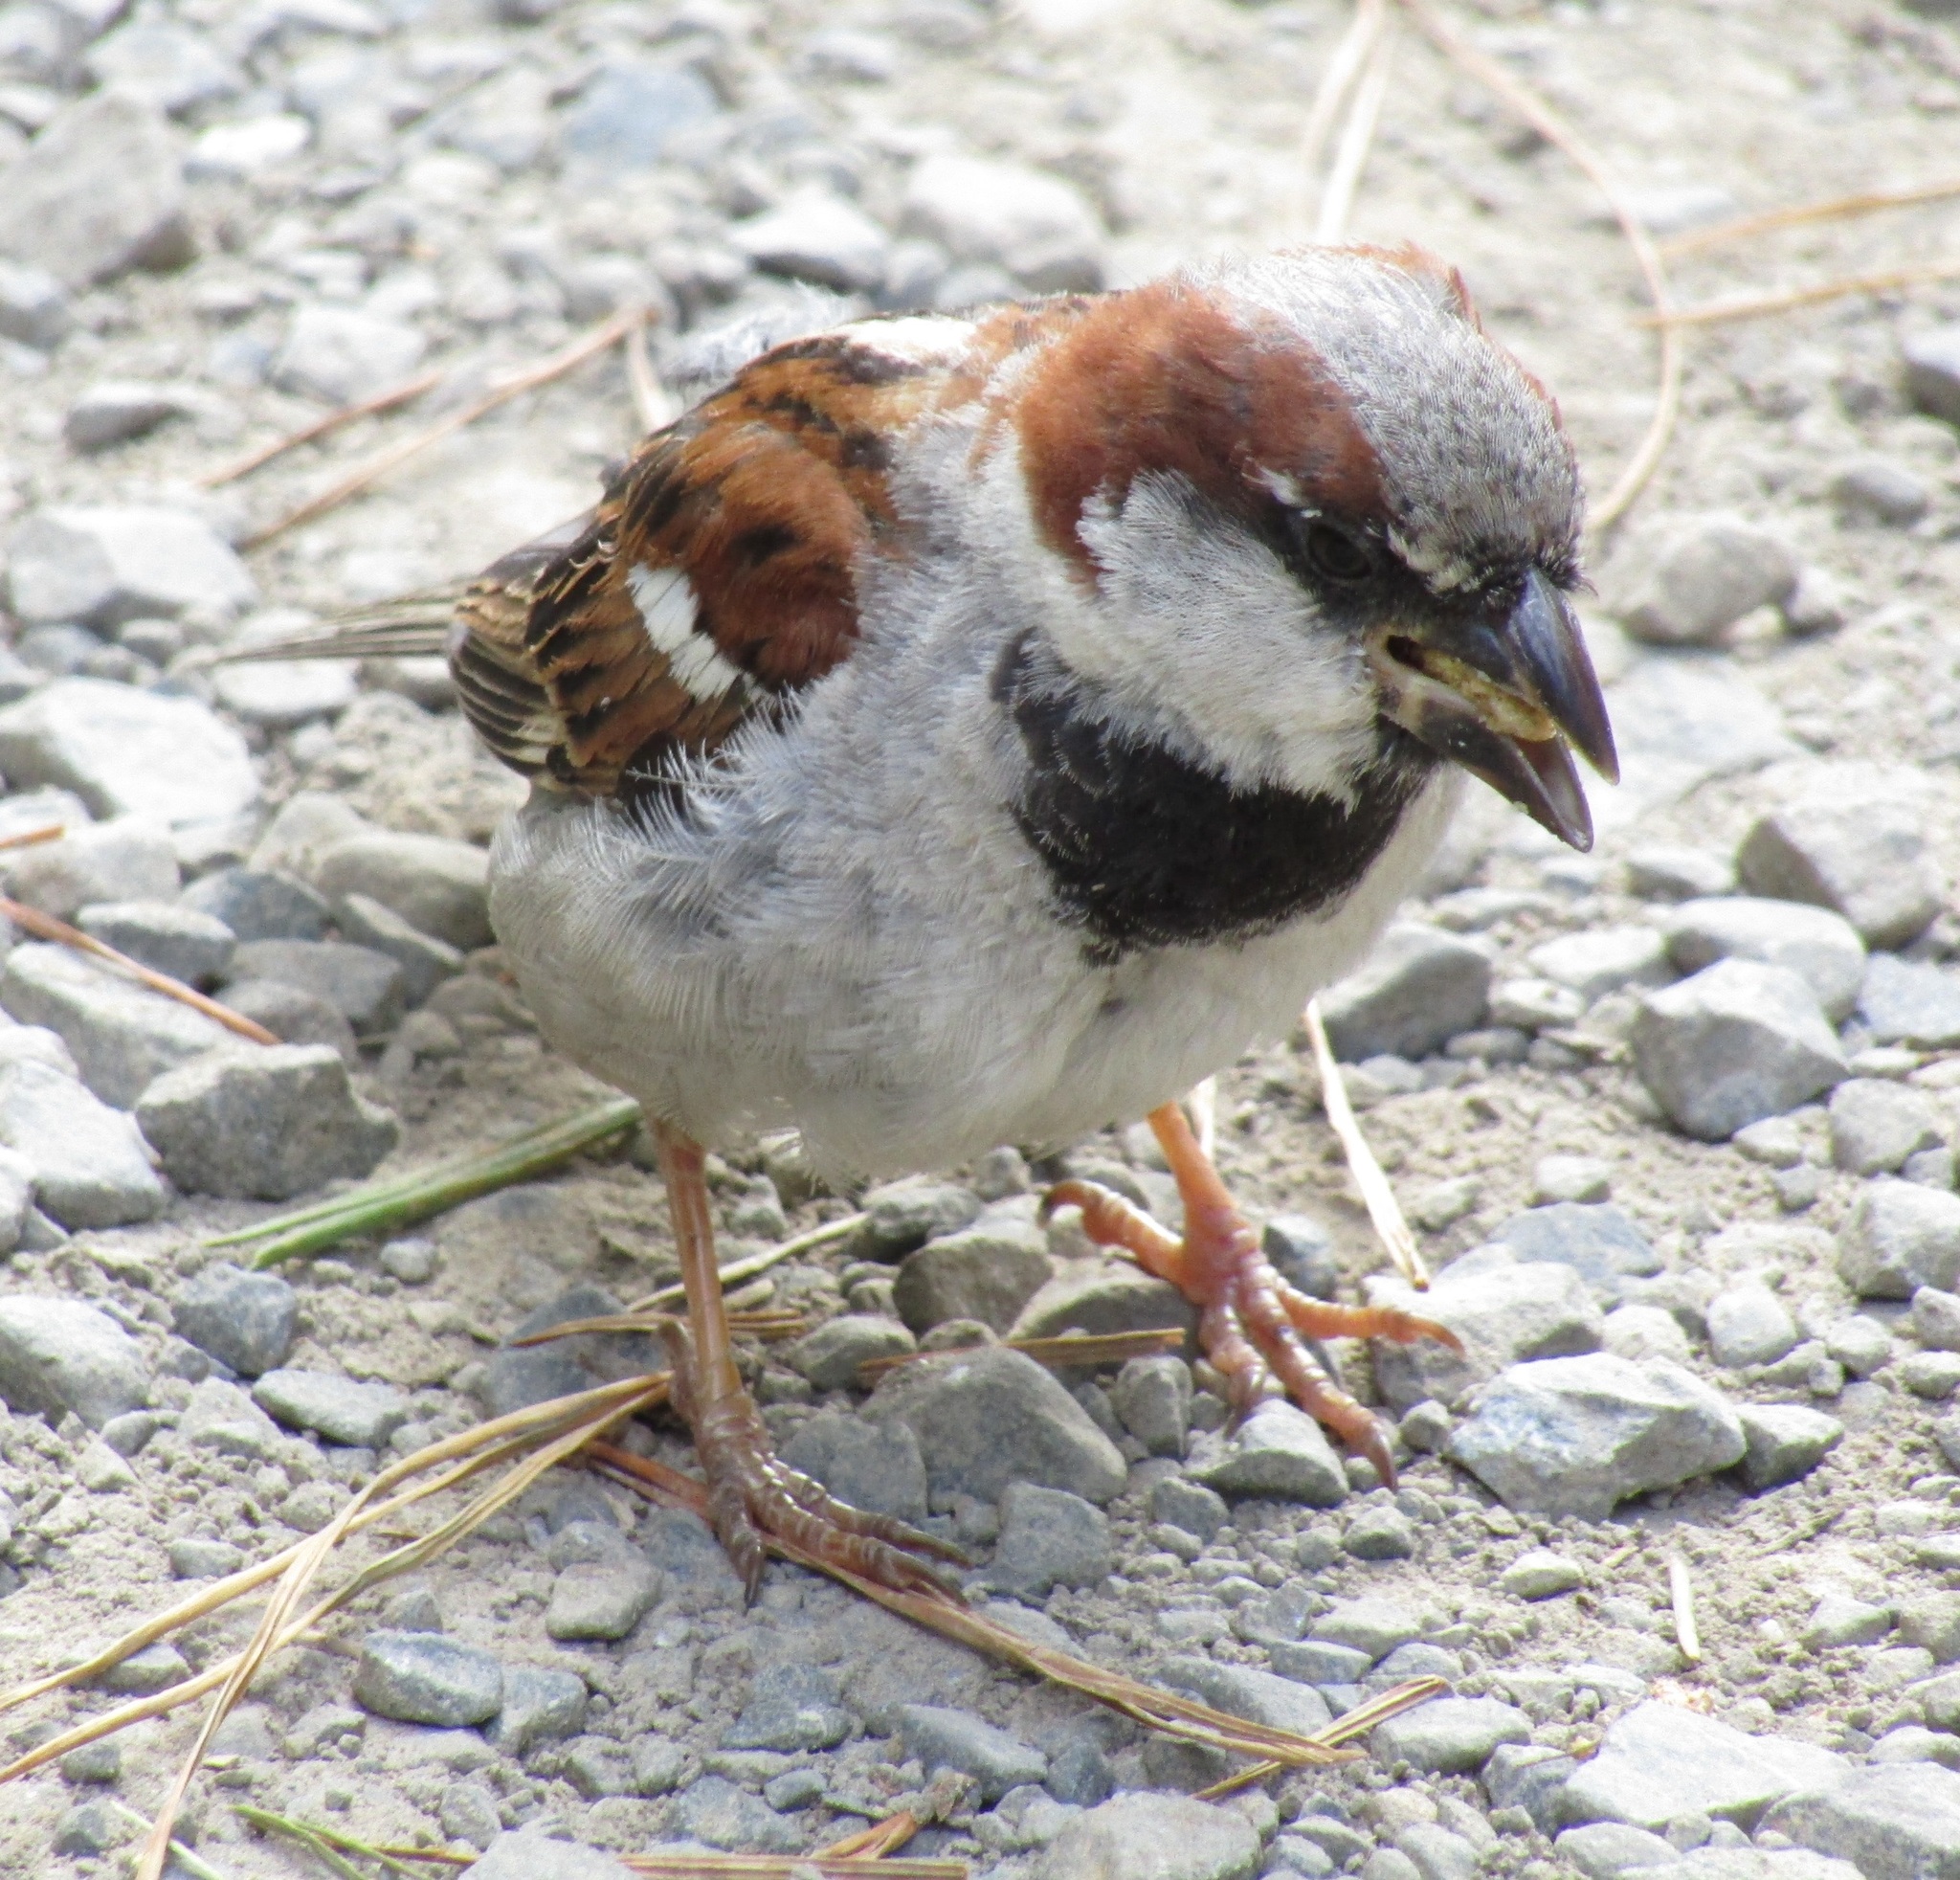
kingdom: Animalia
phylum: Chordata
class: Aves
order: Passeriformes
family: Passeridae
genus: Passer
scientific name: Passer domesticus
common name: House sparrow
